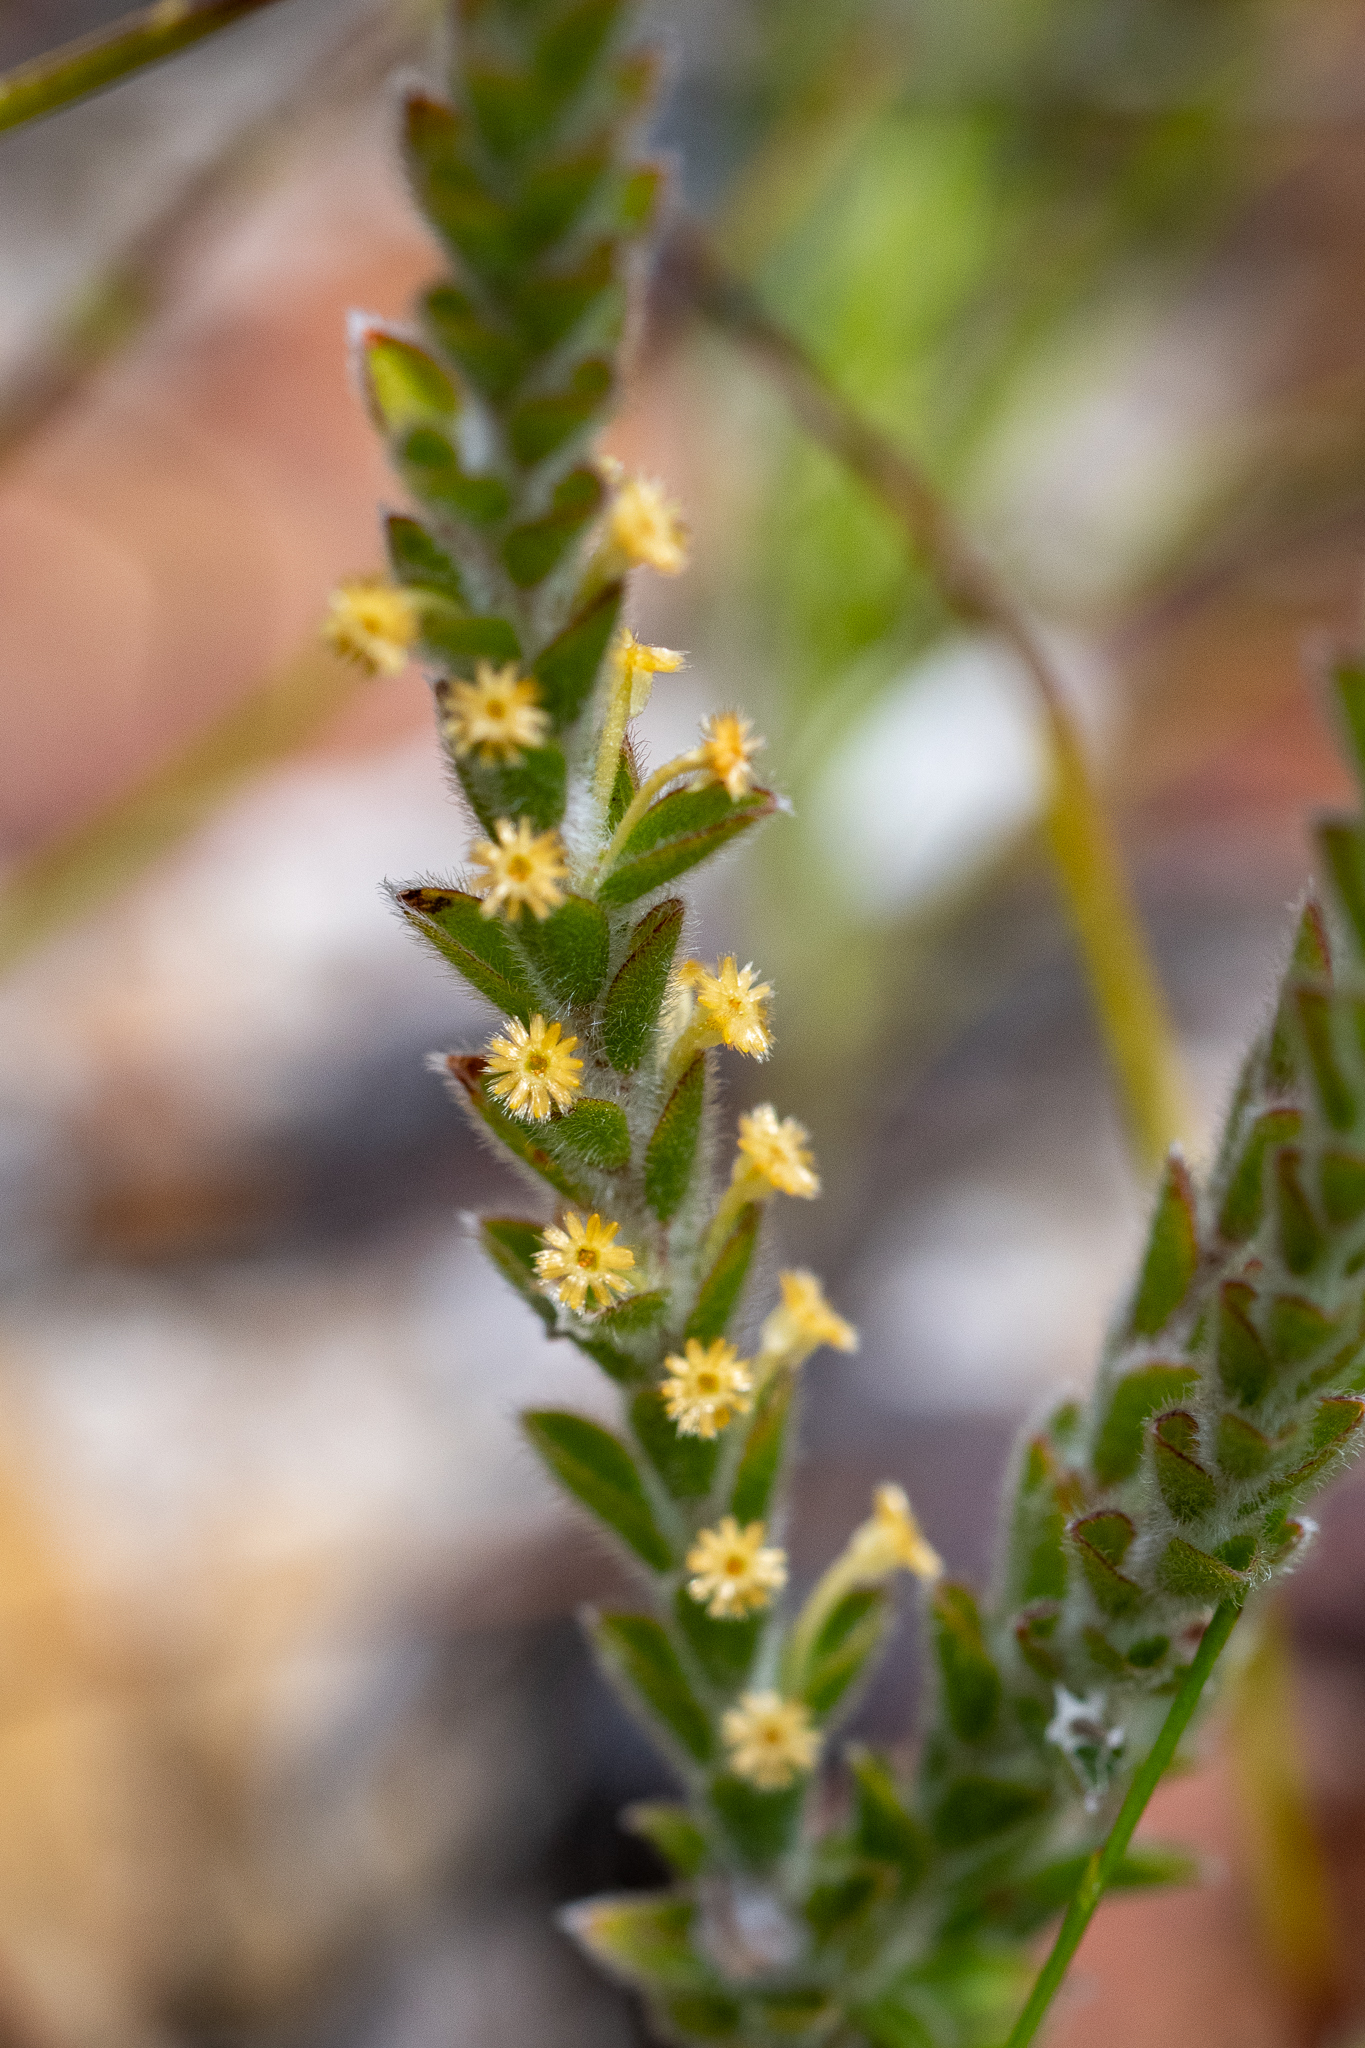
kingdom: Plantae
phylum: Tracheophyta
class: Magnoliopsida
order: Malvales
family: Thymelaeaceae
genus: Struthiola
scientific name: Struthiola tomentosa
